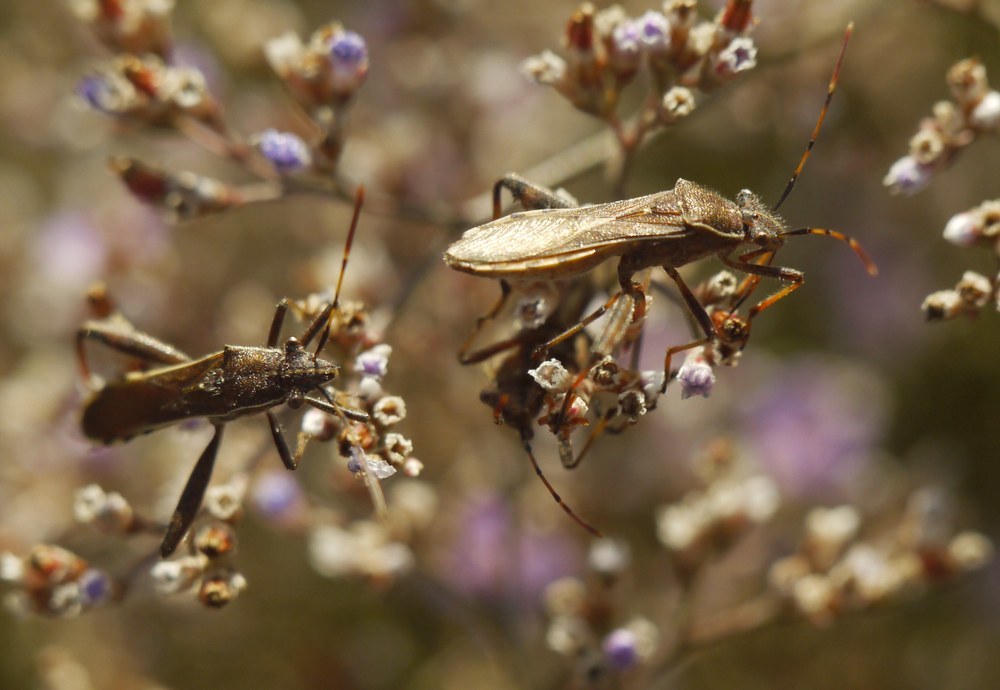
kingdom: Animalia
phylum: Arthropoda
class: Insecta
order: Hemiptera
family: Alydidae
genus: Camptopus
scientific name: Camptopus lateralis
